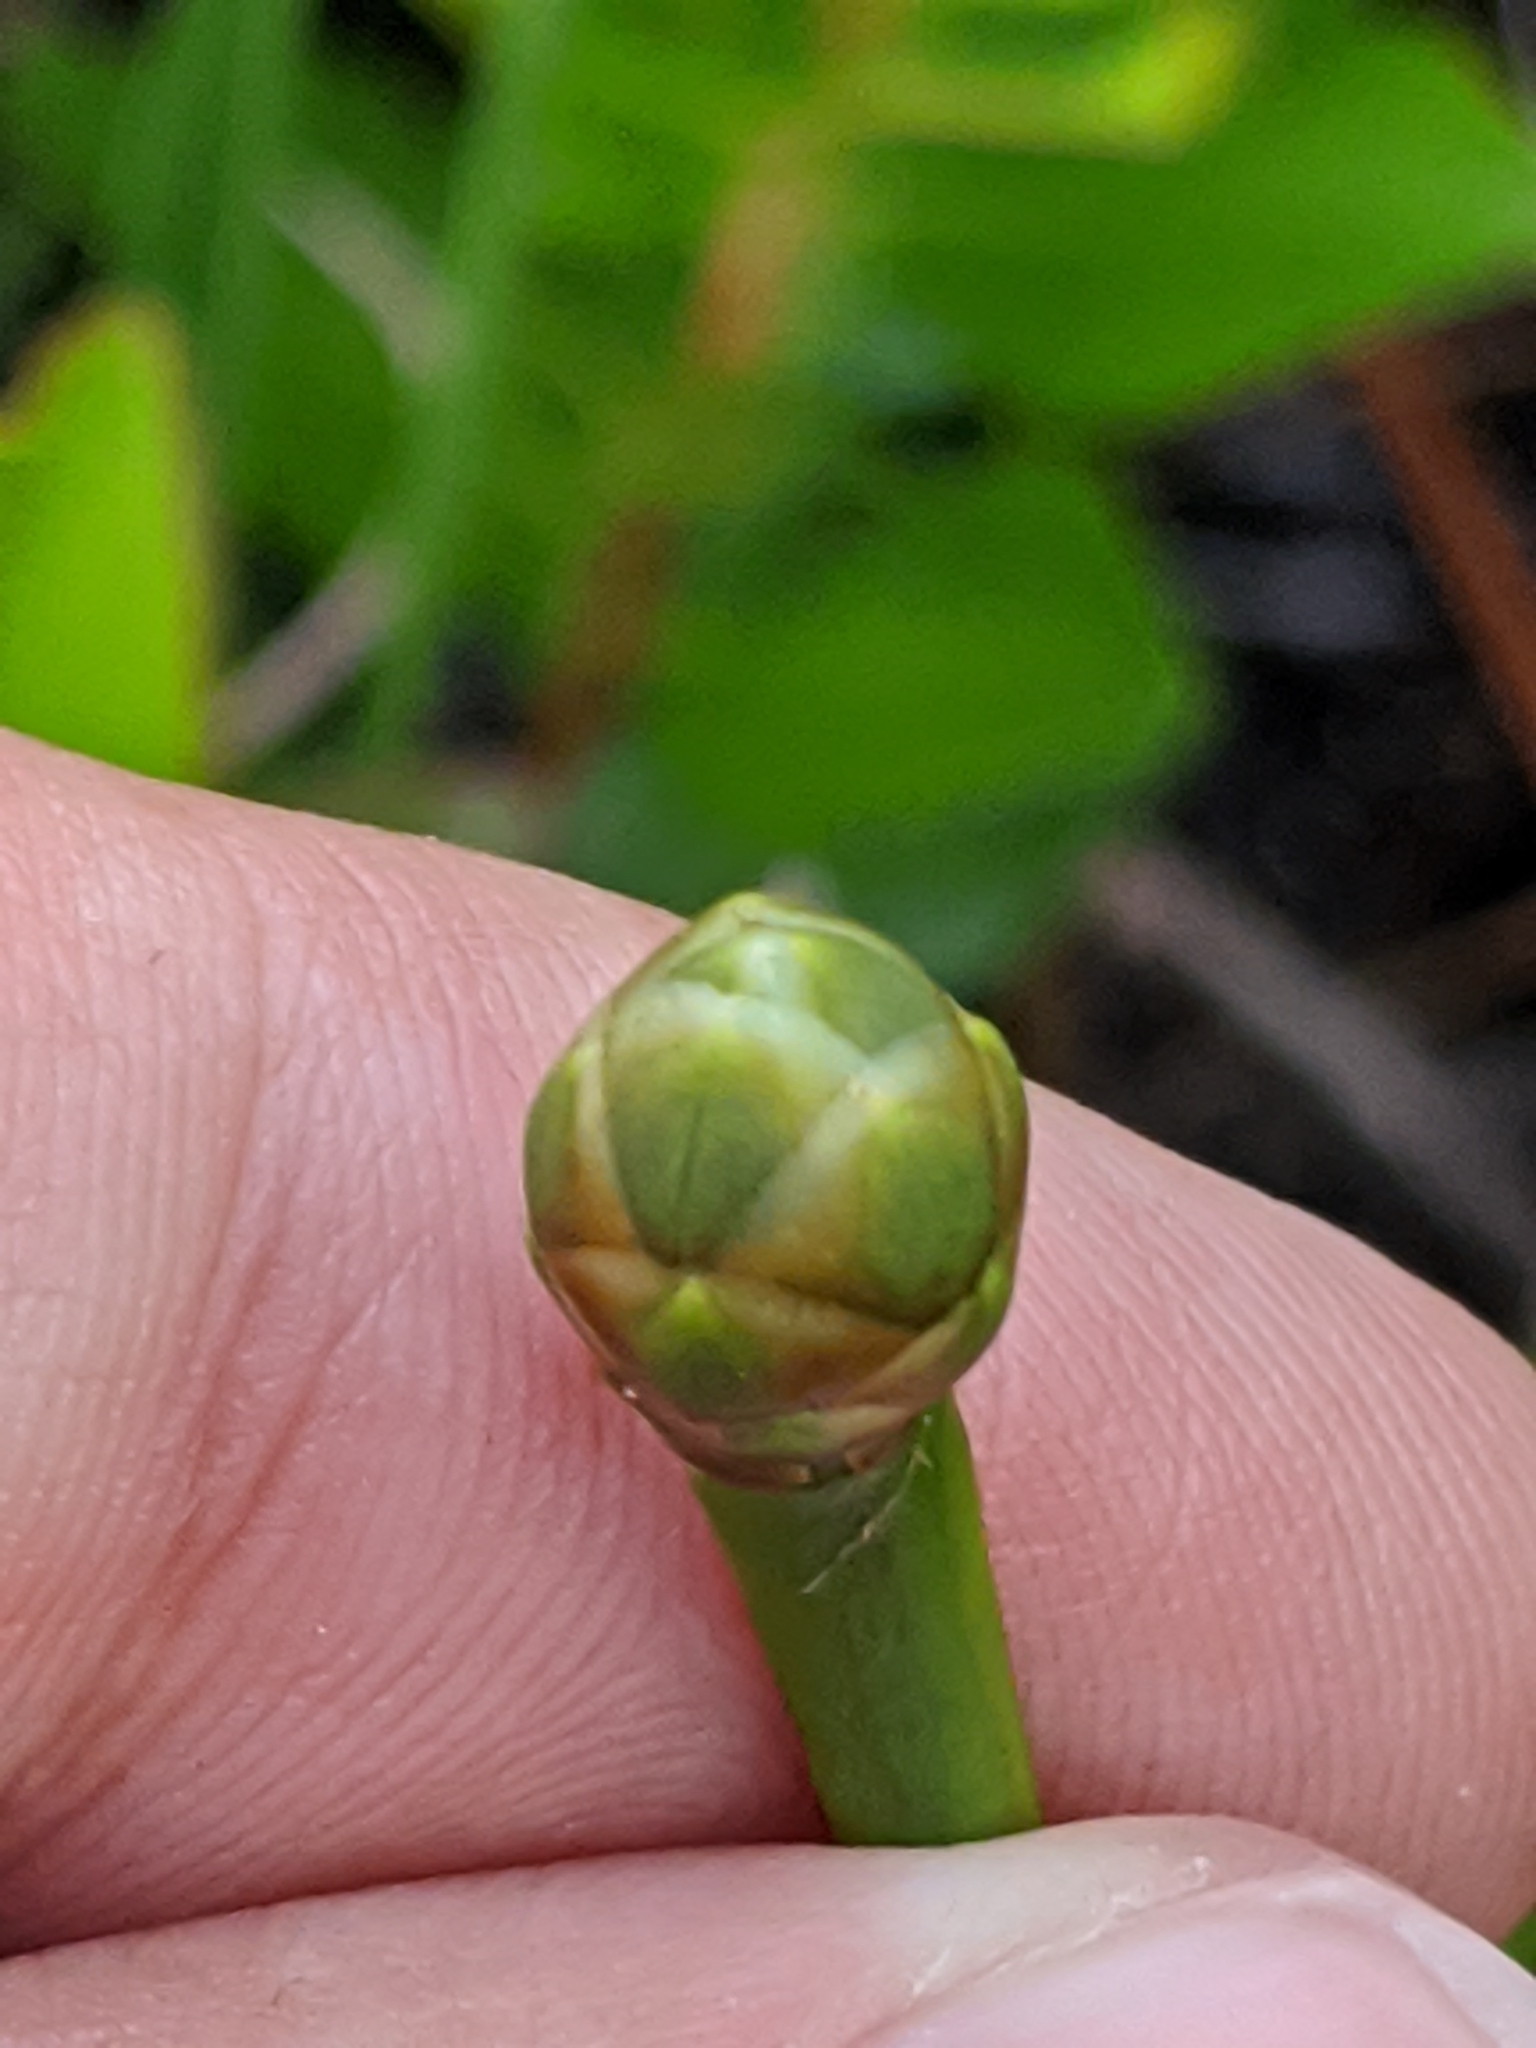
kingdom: Plantae
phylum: Tracheophyta
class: Liliopsida
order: Poales
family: Xyridaceae
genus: Xyris
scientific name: Xyris ambigua
